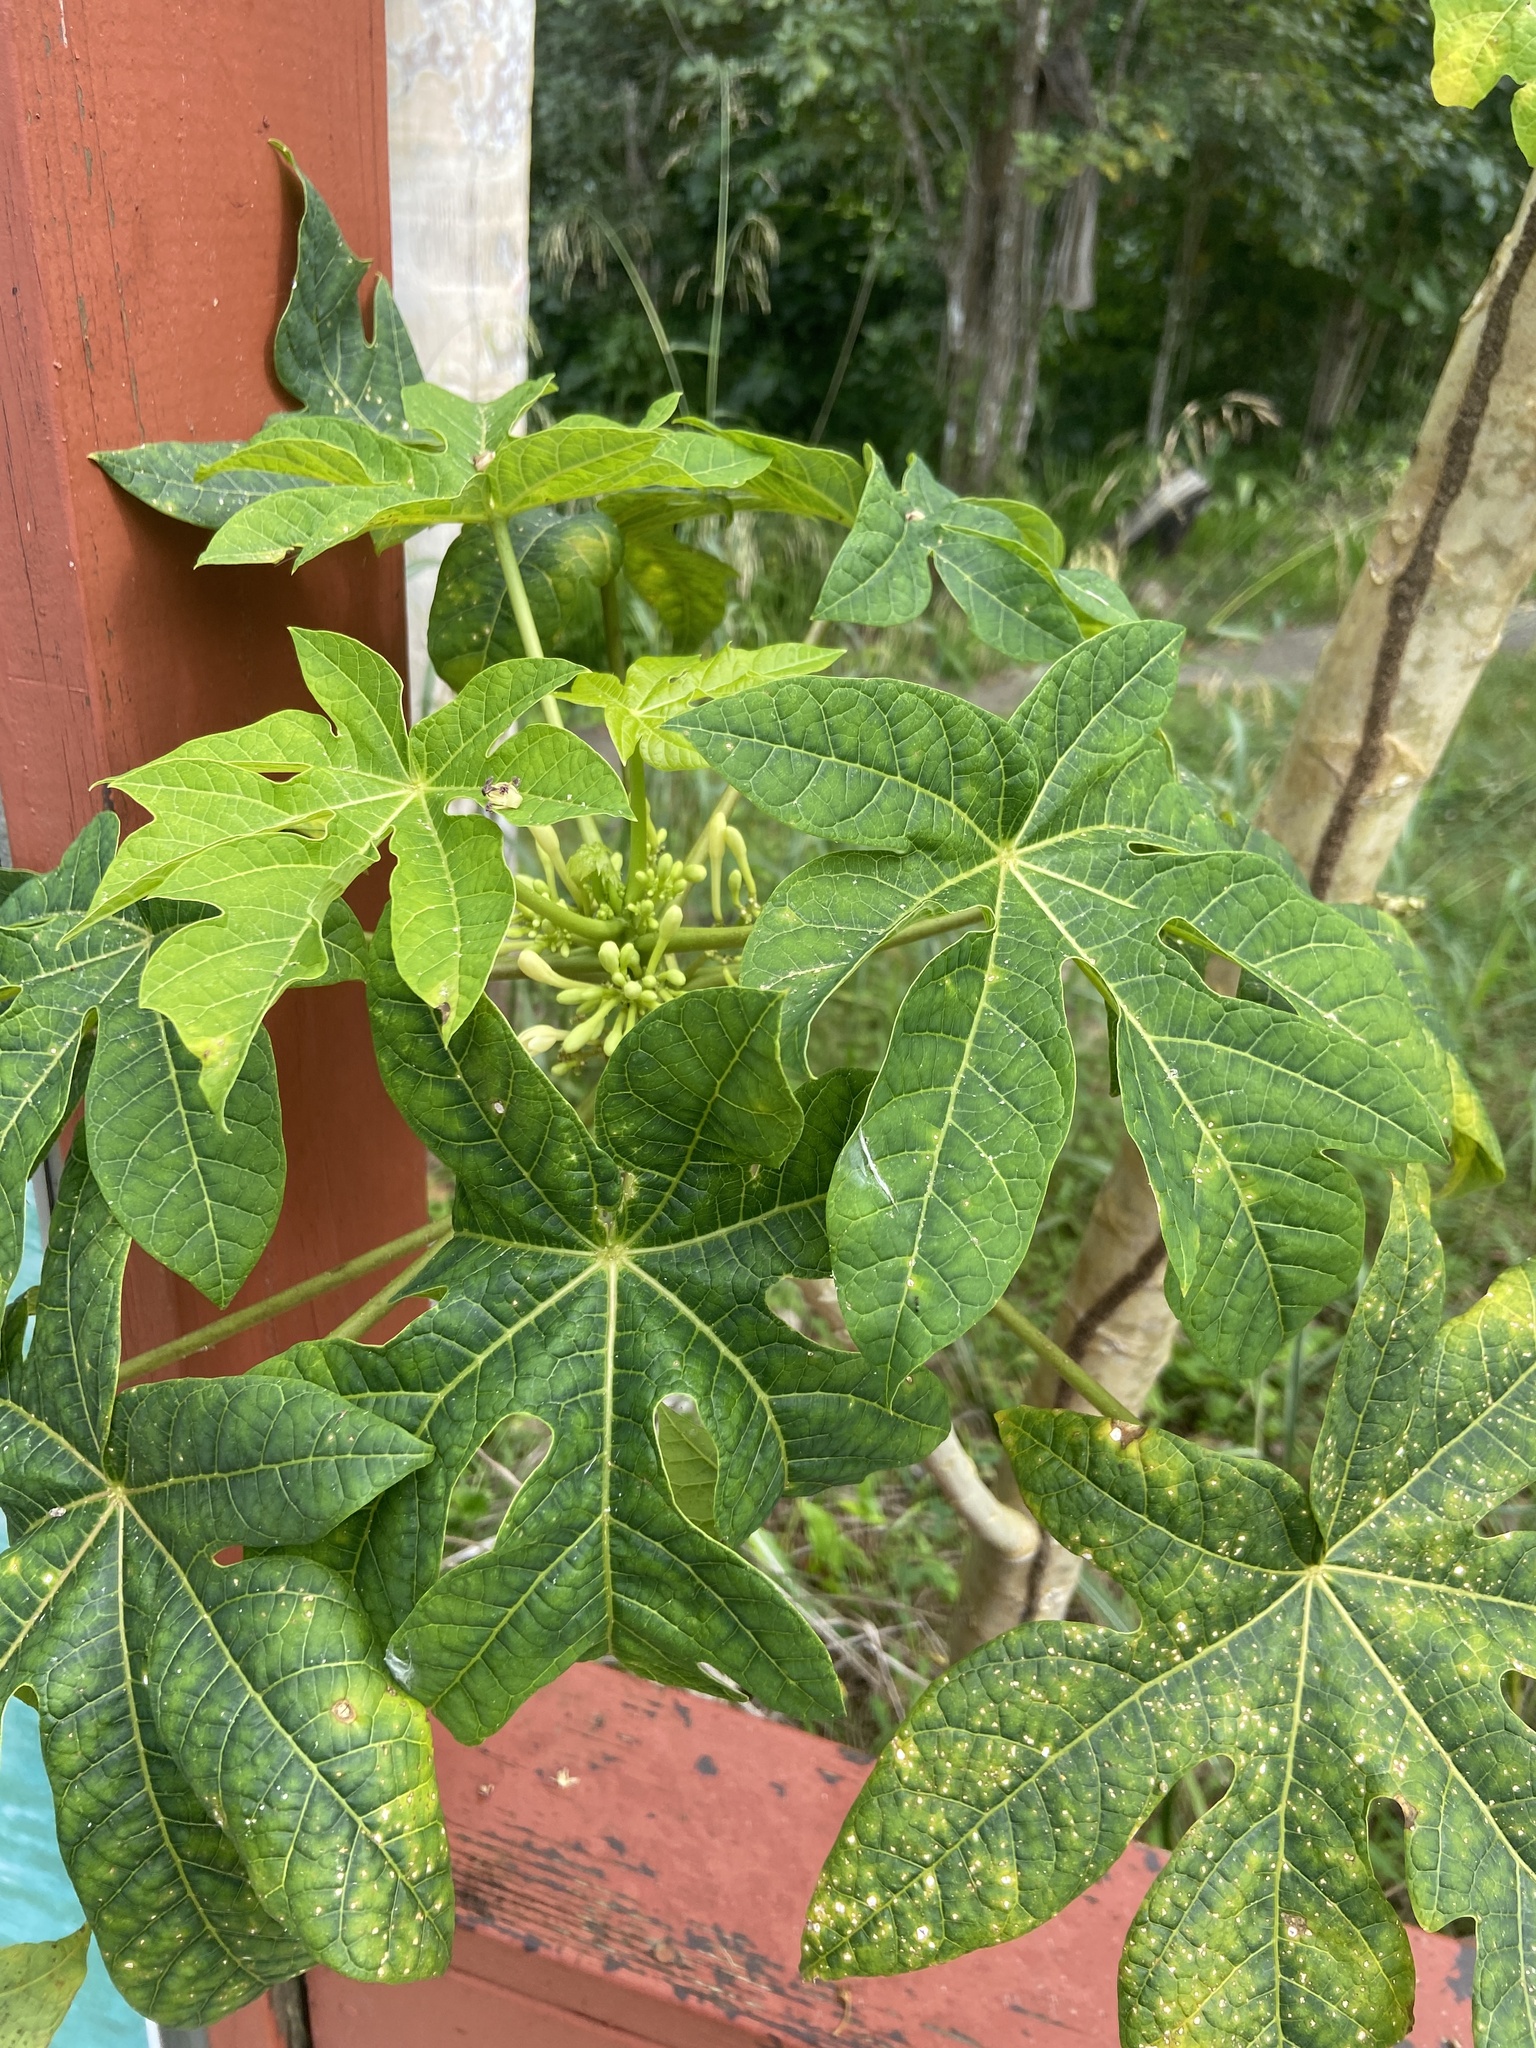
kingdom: Plantae
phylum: Tracheophyta
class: Magnoliopsida
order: Brassicales
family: Caricaceae
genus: Carica
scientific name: Carica papaya
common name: Papaya
